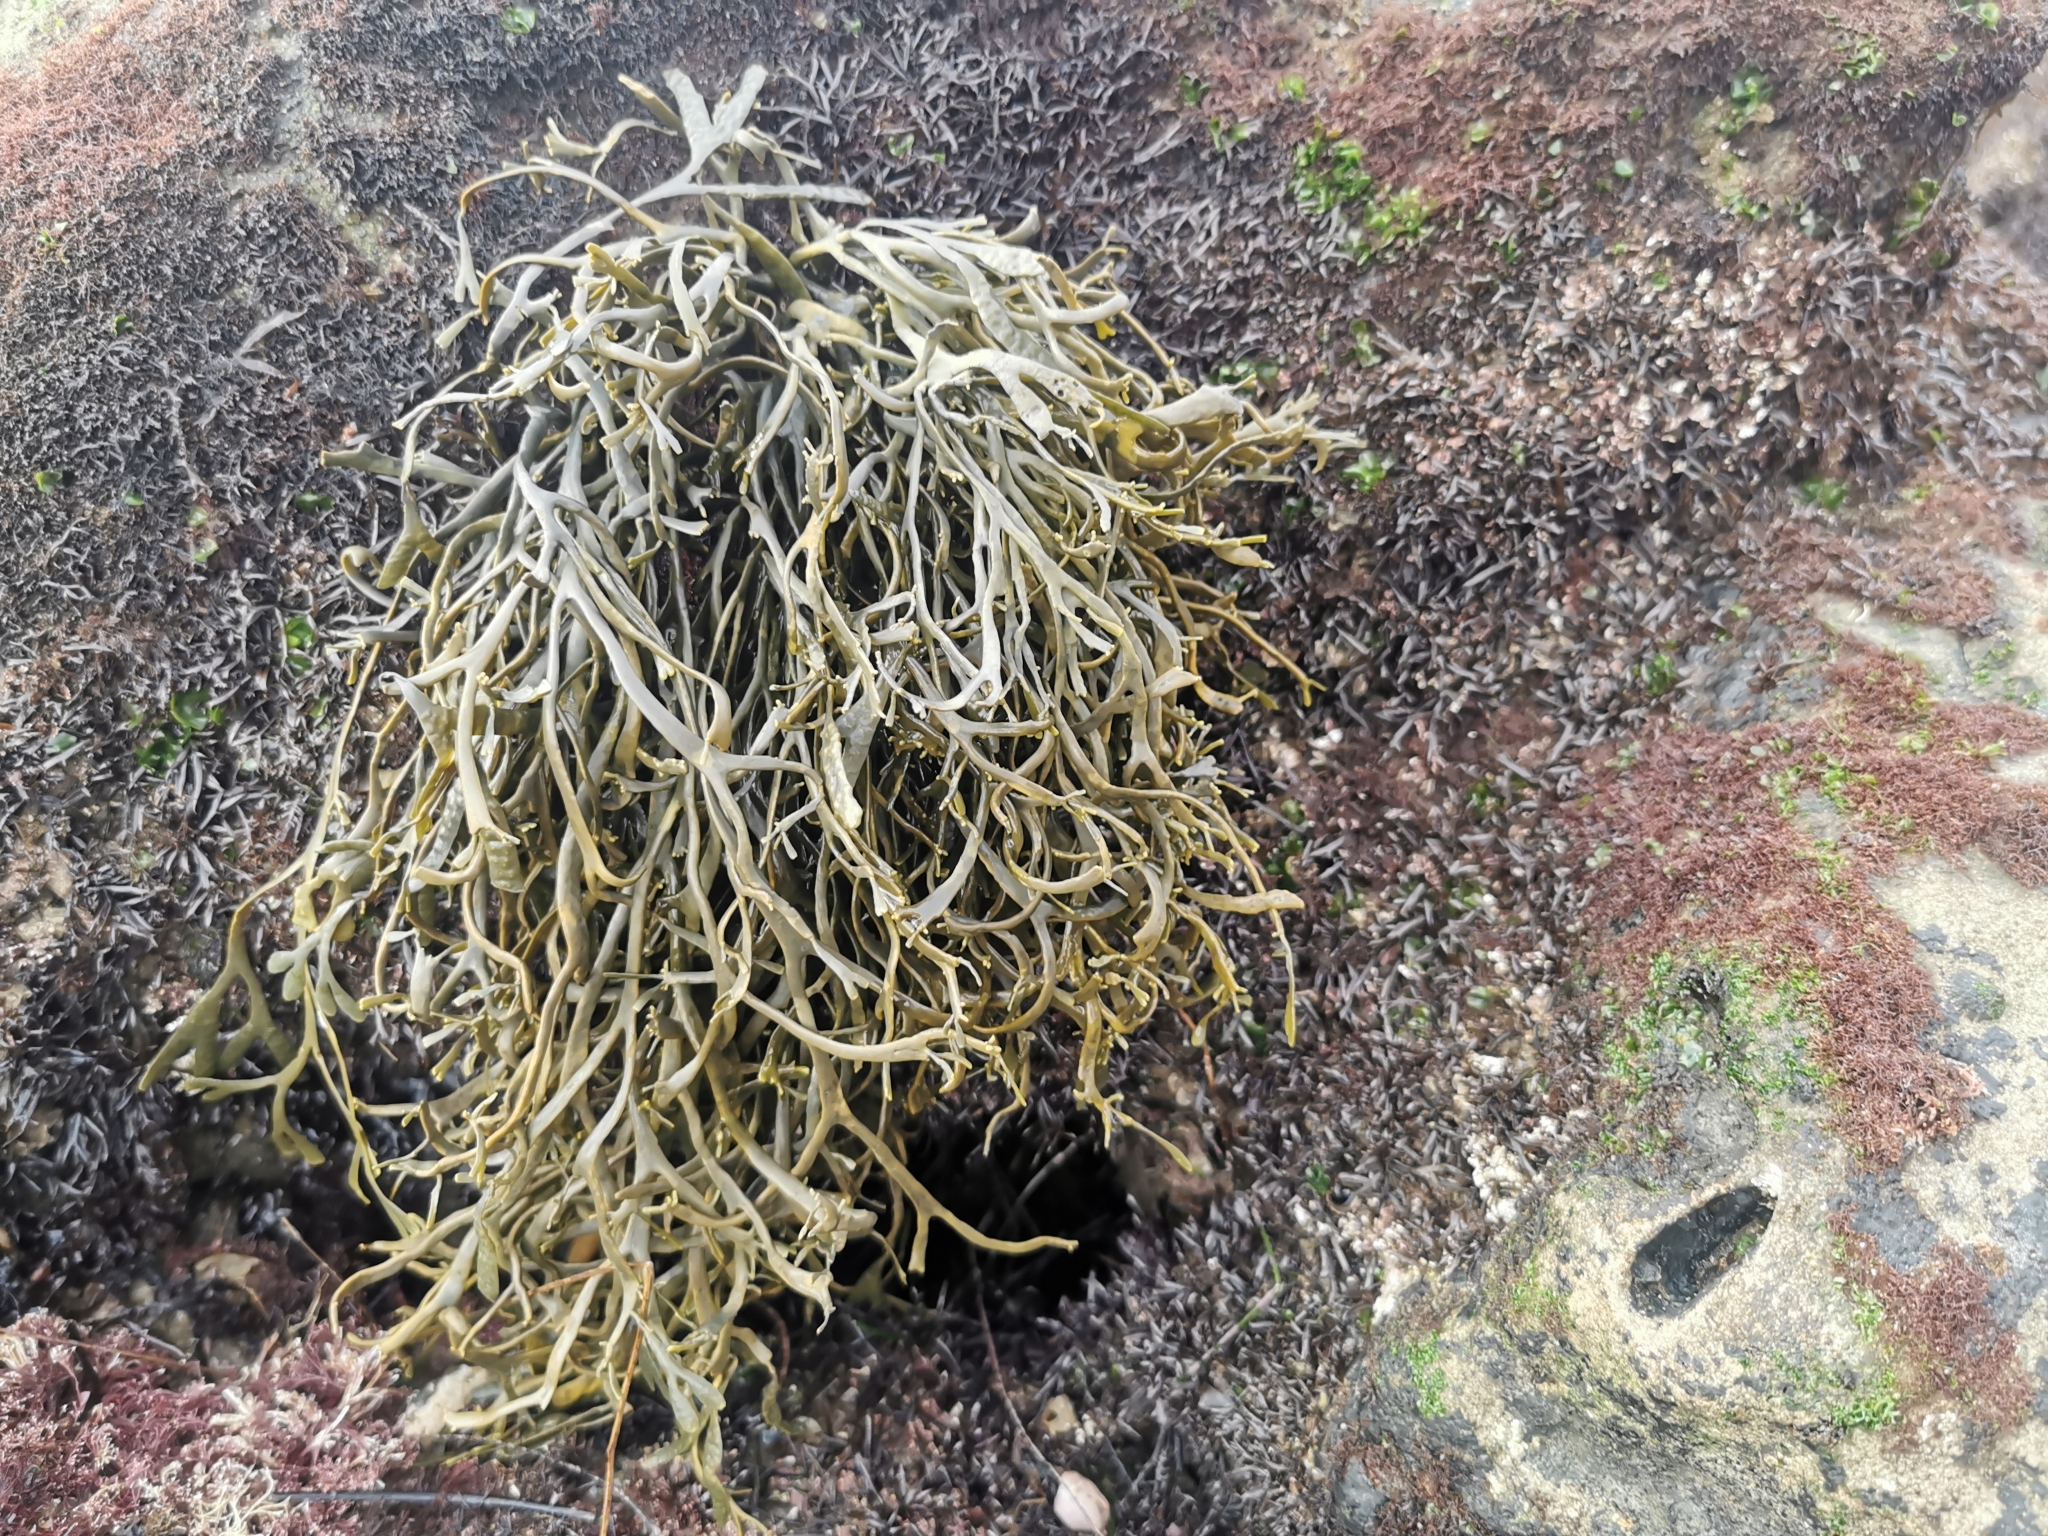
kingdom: Chromista
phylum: Ochrophyta
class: Phaeophyceae
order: Fucales
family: Fucaceae
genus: Silvetia
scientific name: Silvetia
